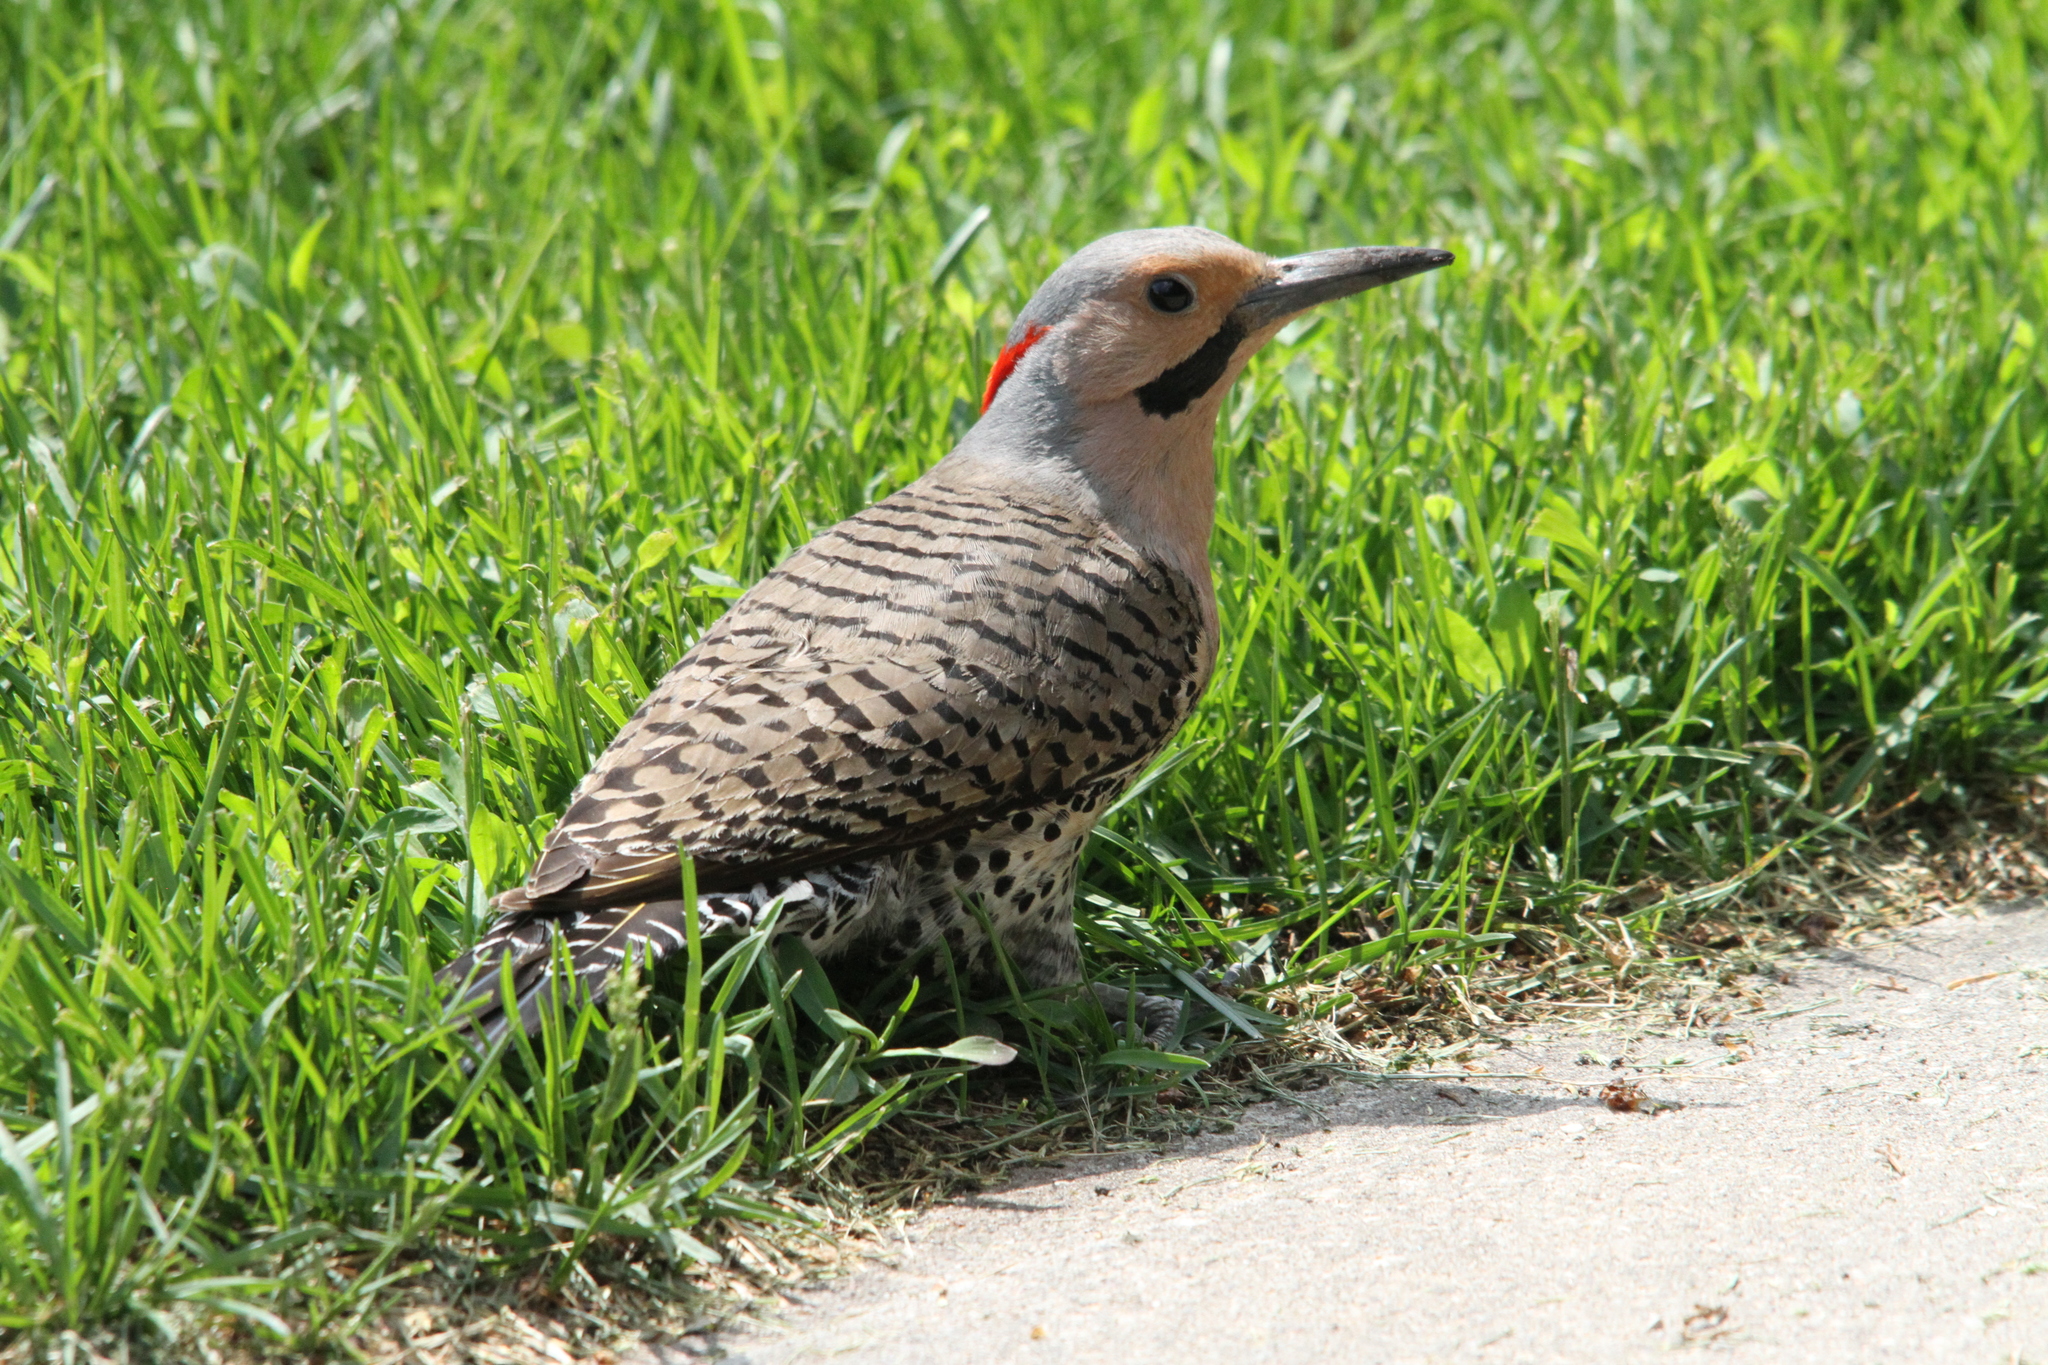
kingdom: Animalia
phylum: Chordata
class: Aves
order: Piciformes
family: Picidae
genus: Colaptes
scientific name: Colaptes auratus
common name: Northern flicker
